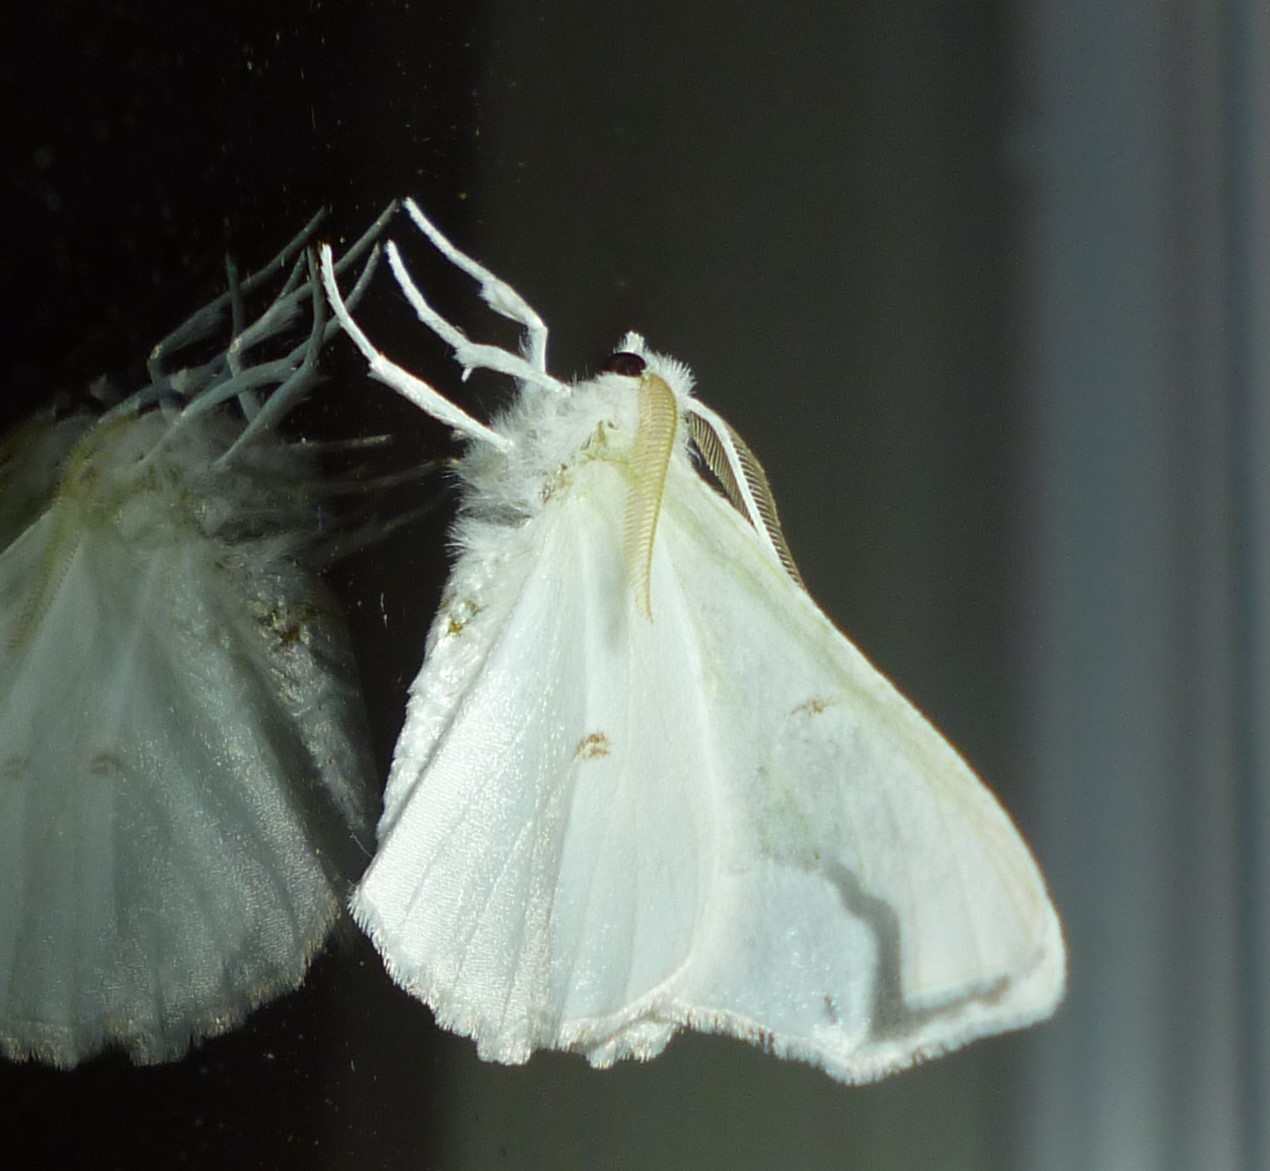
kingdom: Animalia
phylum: Arthropoda
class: Insecta
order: Lepidoptera
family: Geometridae
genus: Ennomos
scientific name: Ennomos subsignaria
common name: Elm spanworm
